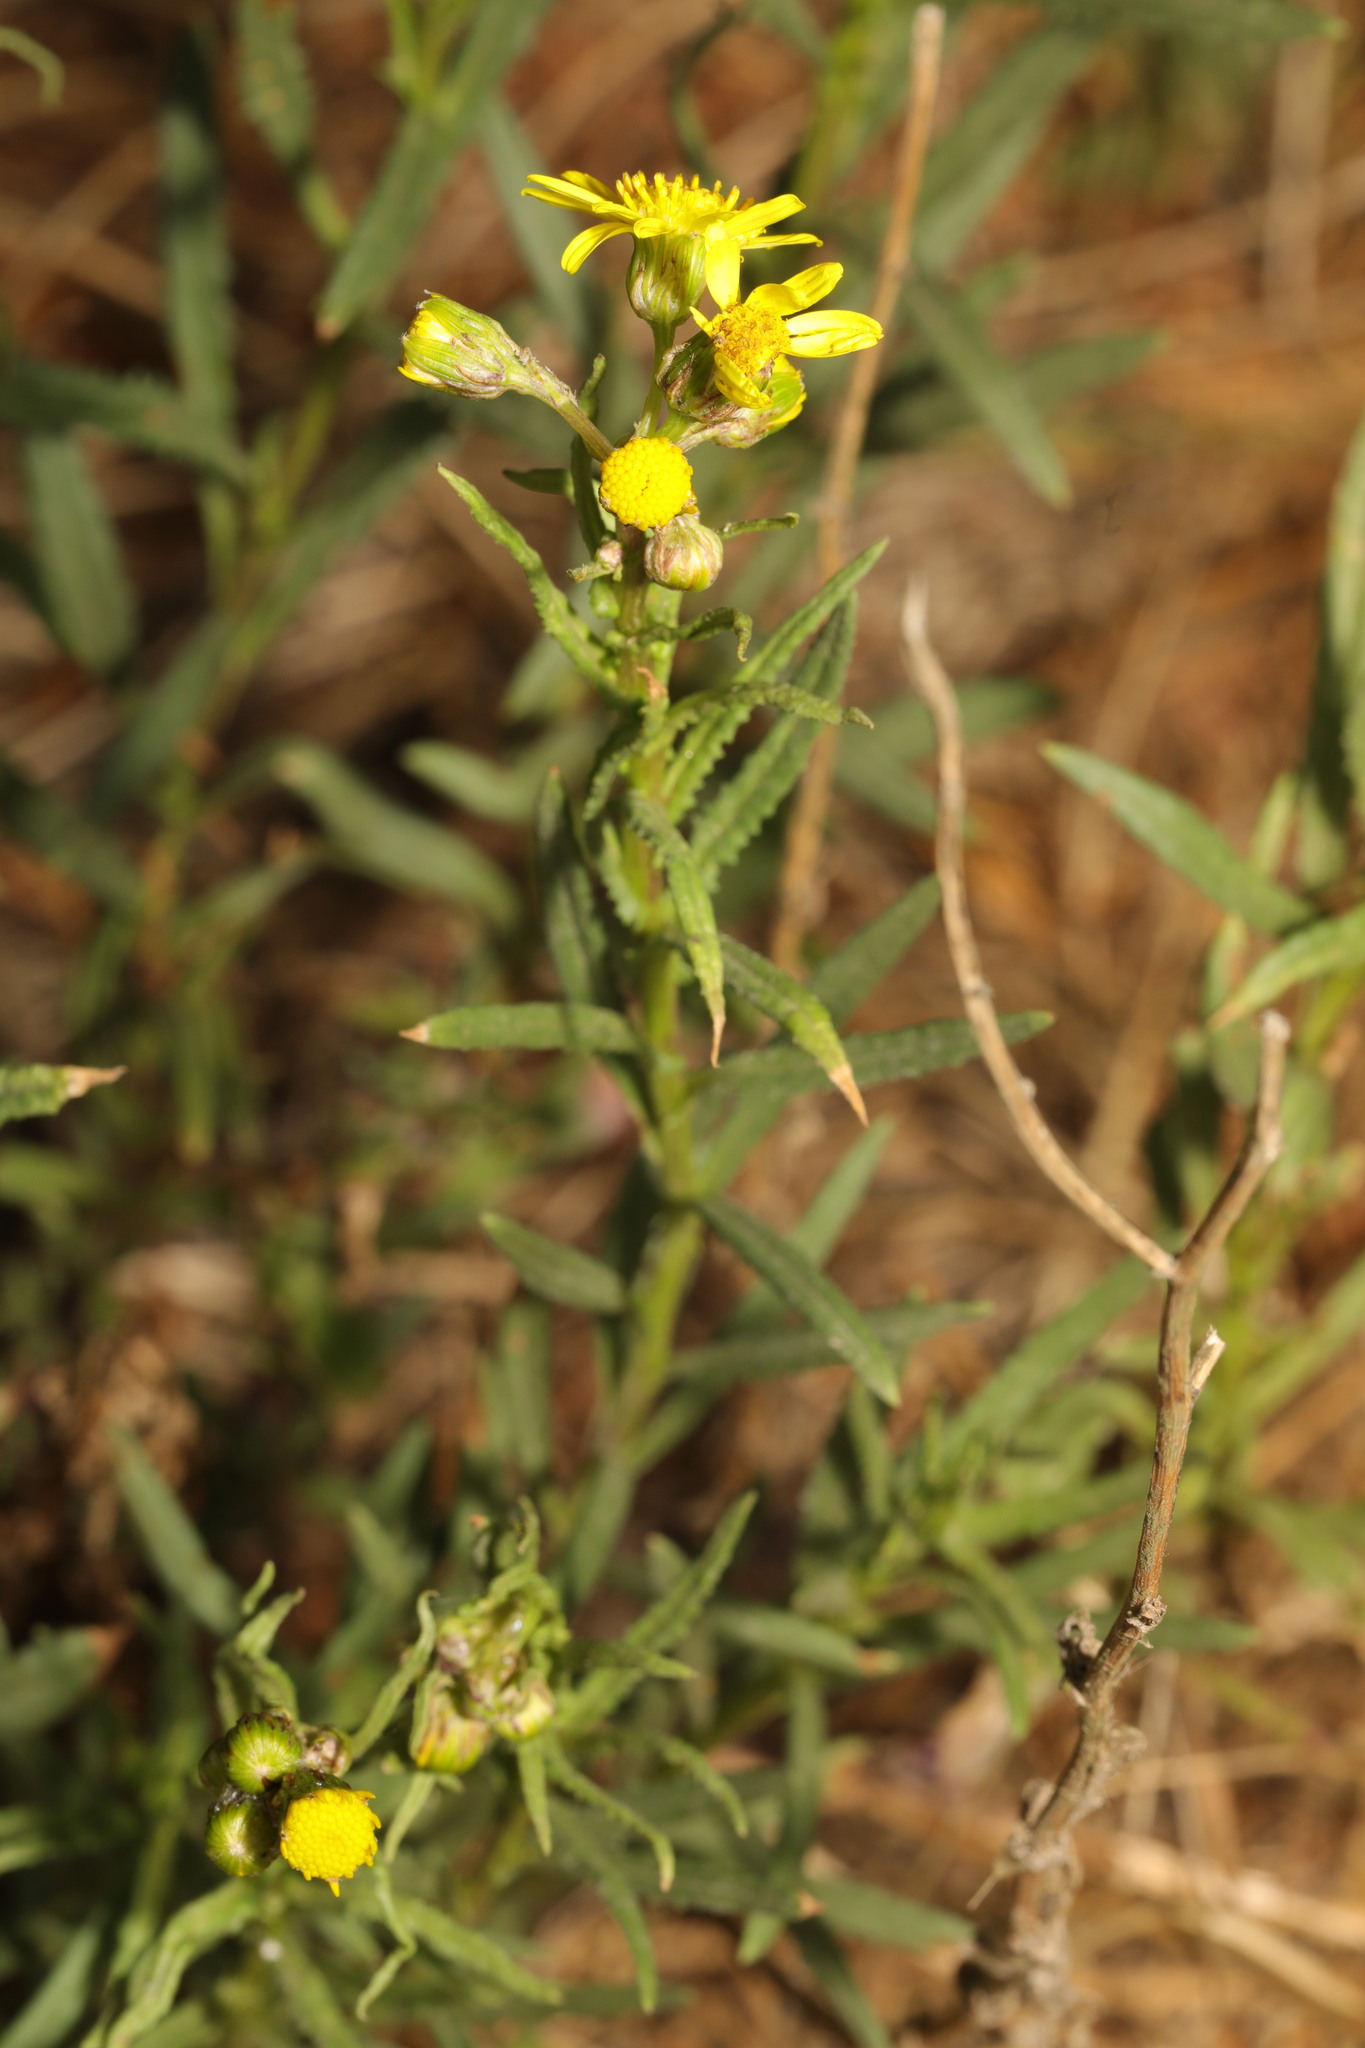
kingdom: Plantae
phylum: Tracheophyta
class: Magnoliopsida
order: Asterales
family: Asteraceae
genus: Senecio
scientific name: Senecio inaequidens
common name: Narrow-leaved ragwort
